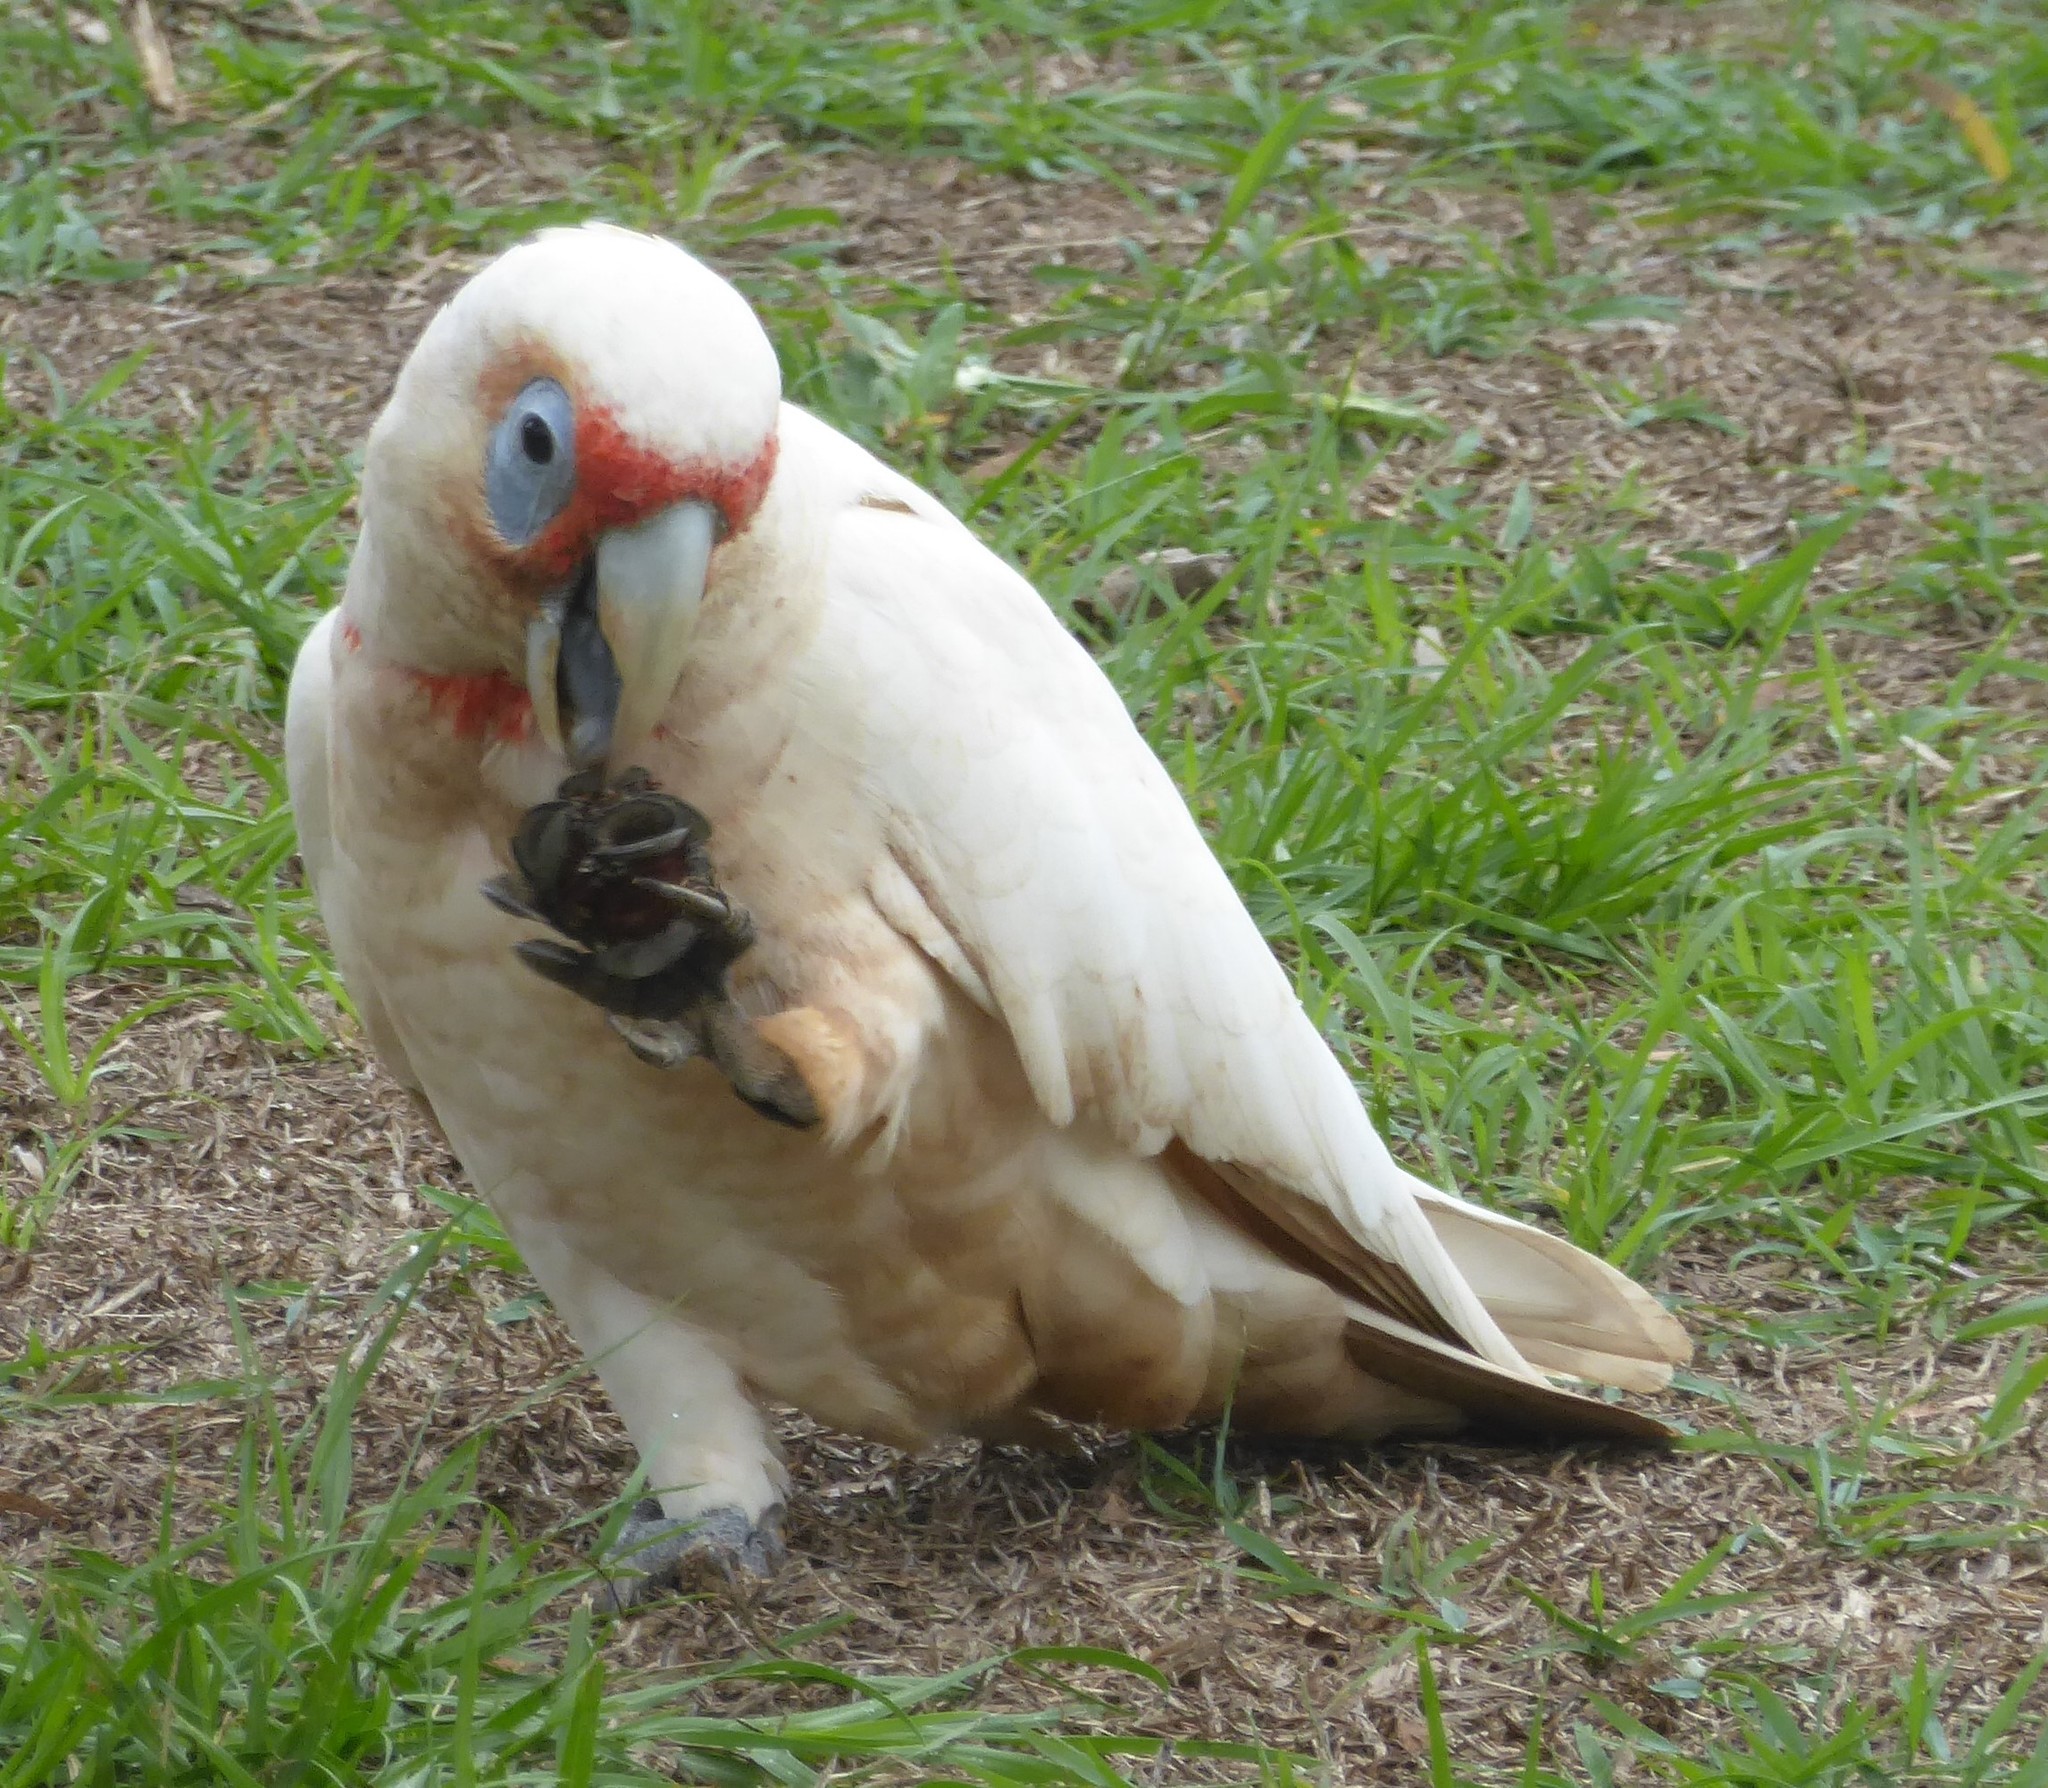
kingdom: Animalia
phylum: Chordata
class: Aves
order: Psittaciformes
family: Psittacidae
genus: Cacatua
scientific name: Cacatua tenuirostris
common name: Long-billed corella
